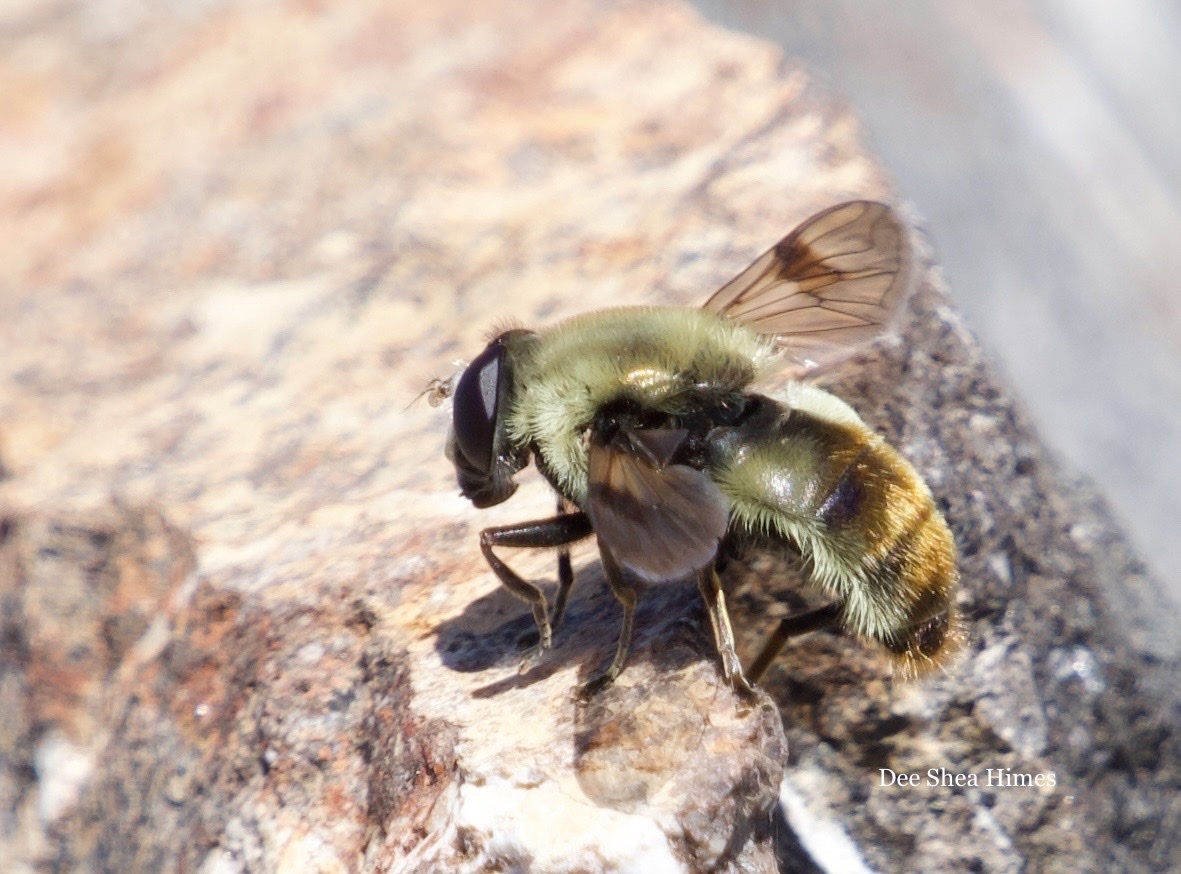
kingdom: Animalia
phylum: Arthropoda
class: Insecta
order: Diptera
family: Syrphidae
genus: Sericomyia
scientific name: Sericomyia flagrans
